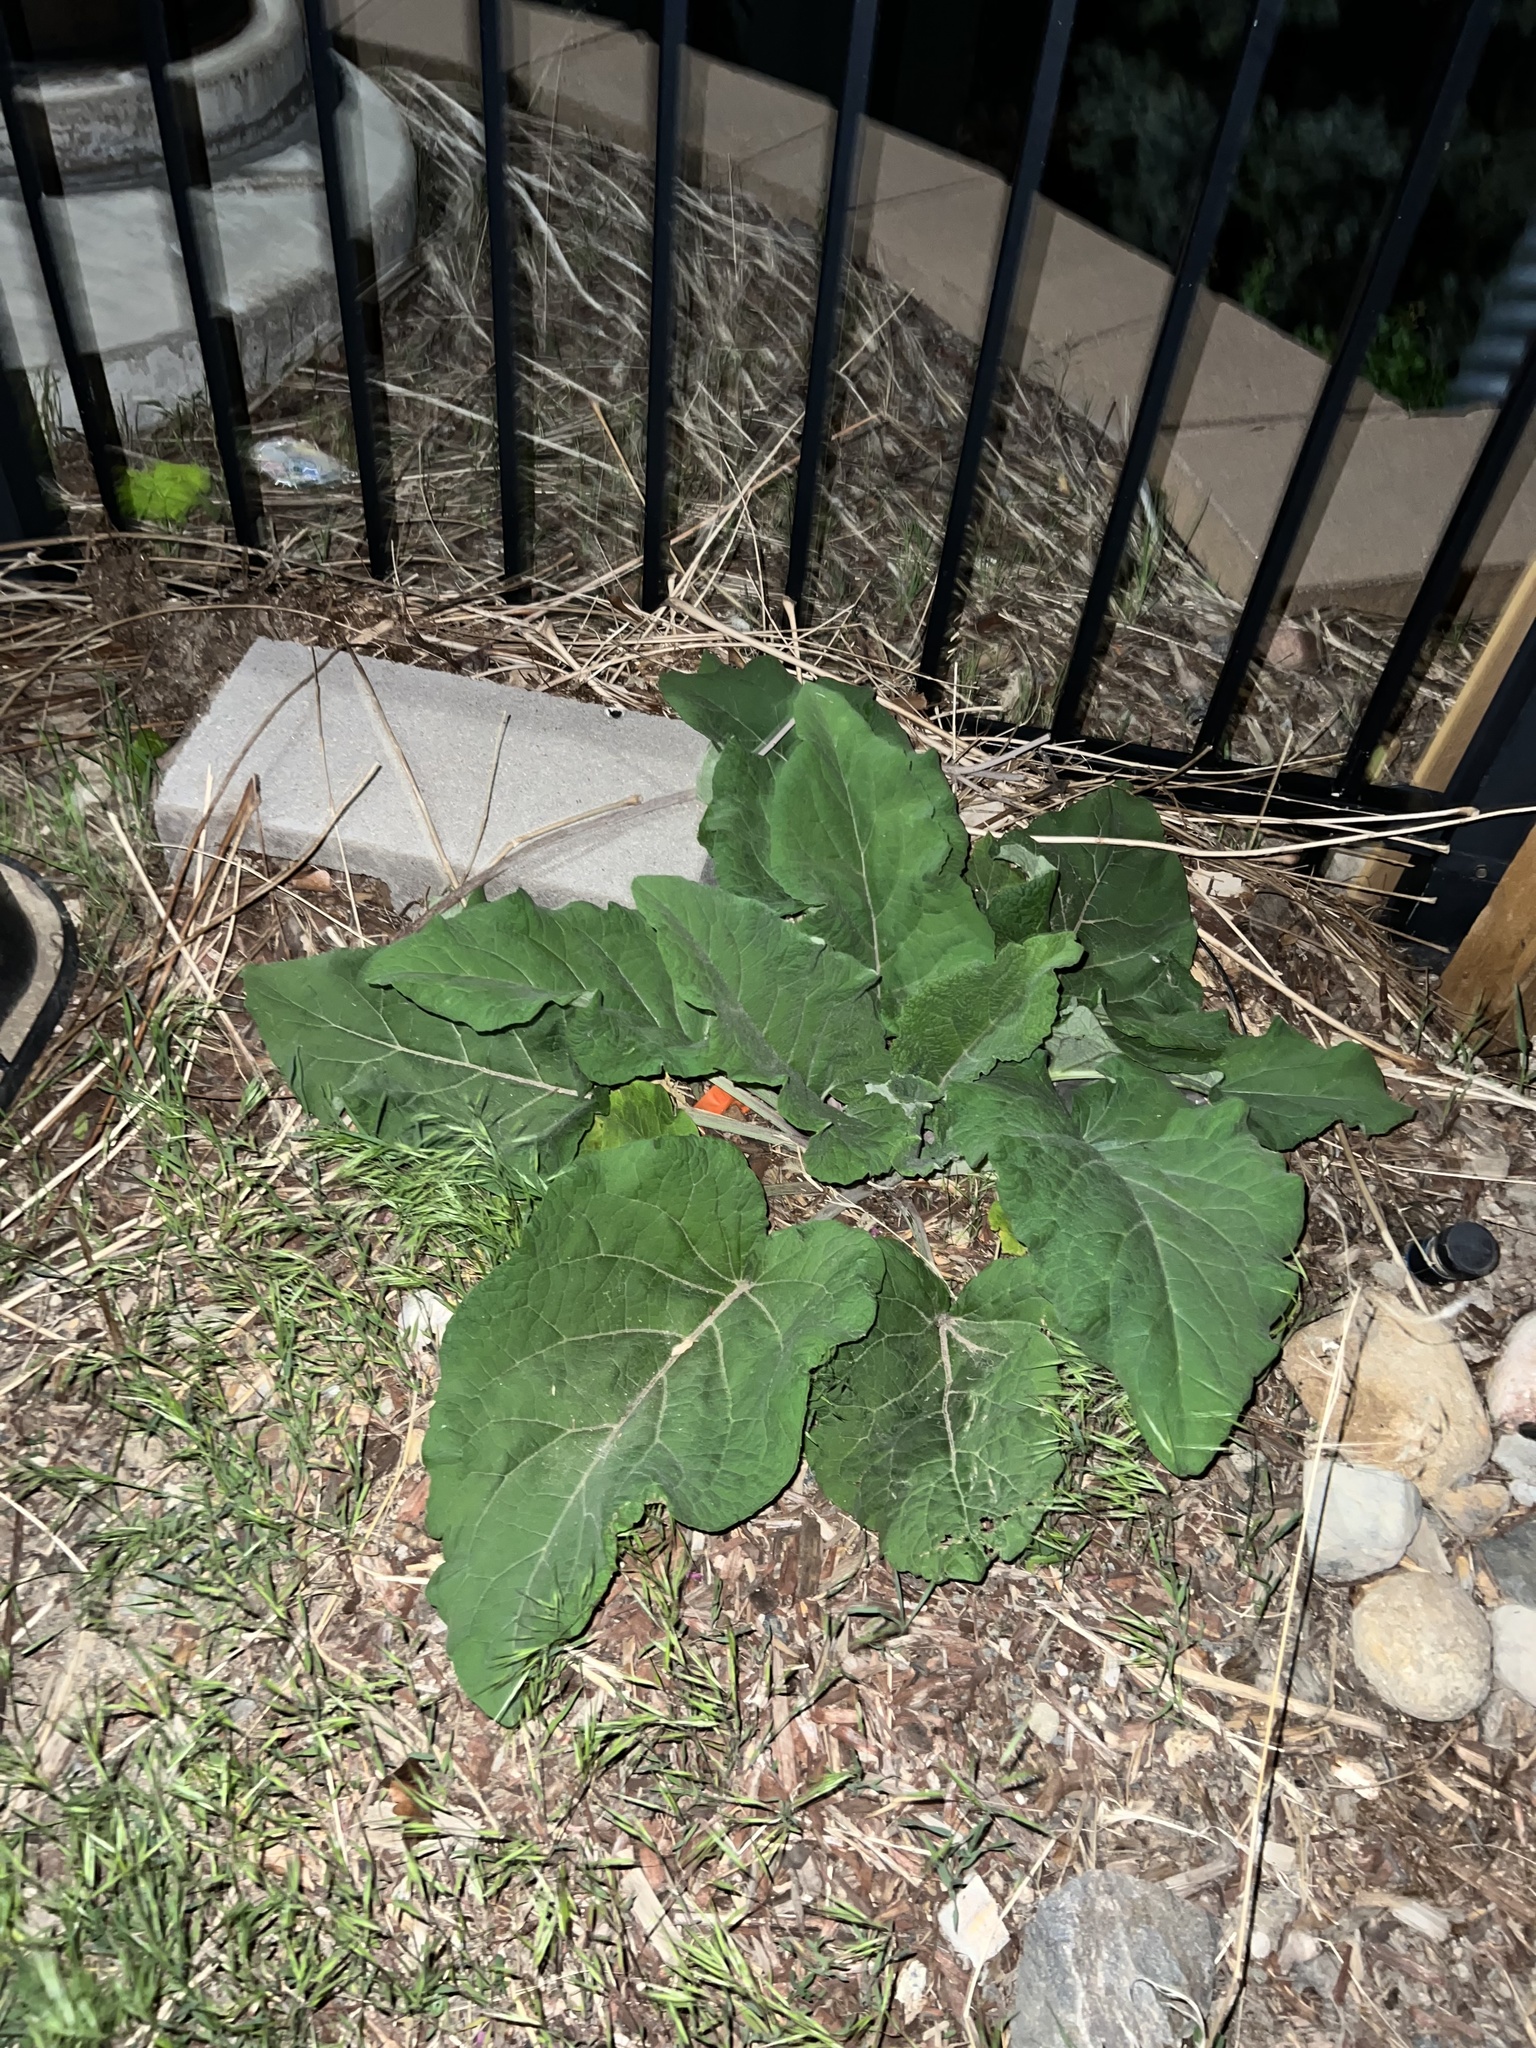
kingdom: Plantae
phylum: Tracheophyta
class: Magnoliopsida
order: Asterales
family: Asteraceae
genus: Arctium
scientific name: Arctium
